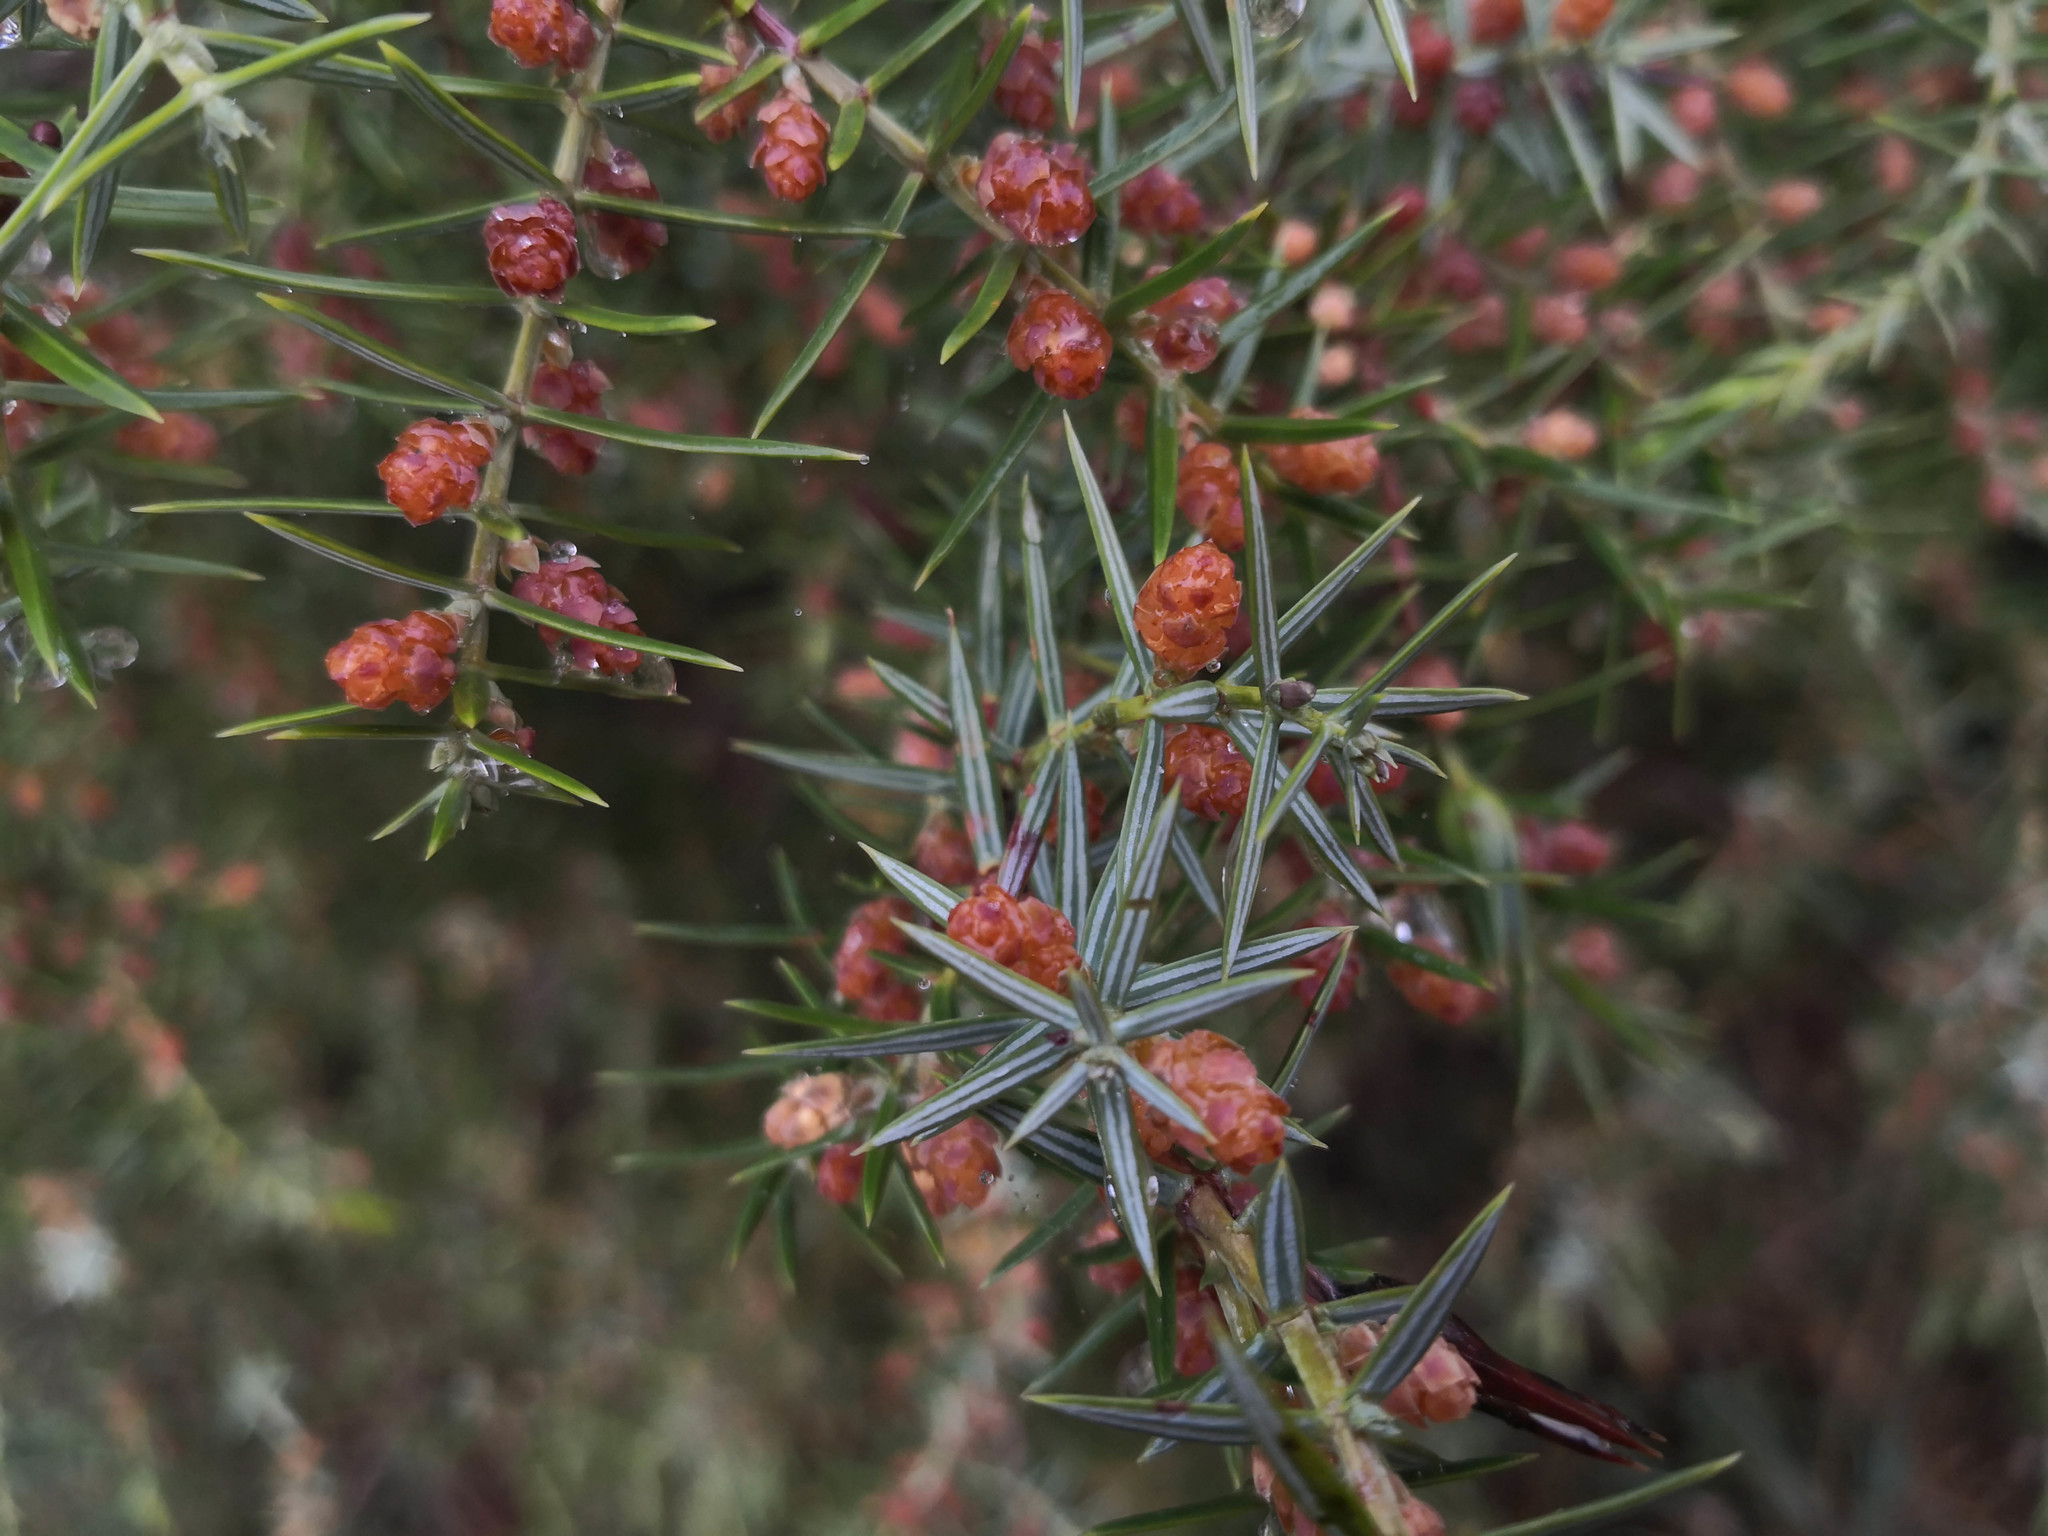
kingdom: Plantae
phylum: Tracheophyta
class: Pinopsida
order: Pinales
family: Cupressaceae
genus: Juniperus
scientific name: Juniperus oxycedrus
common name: Prickly juniper
